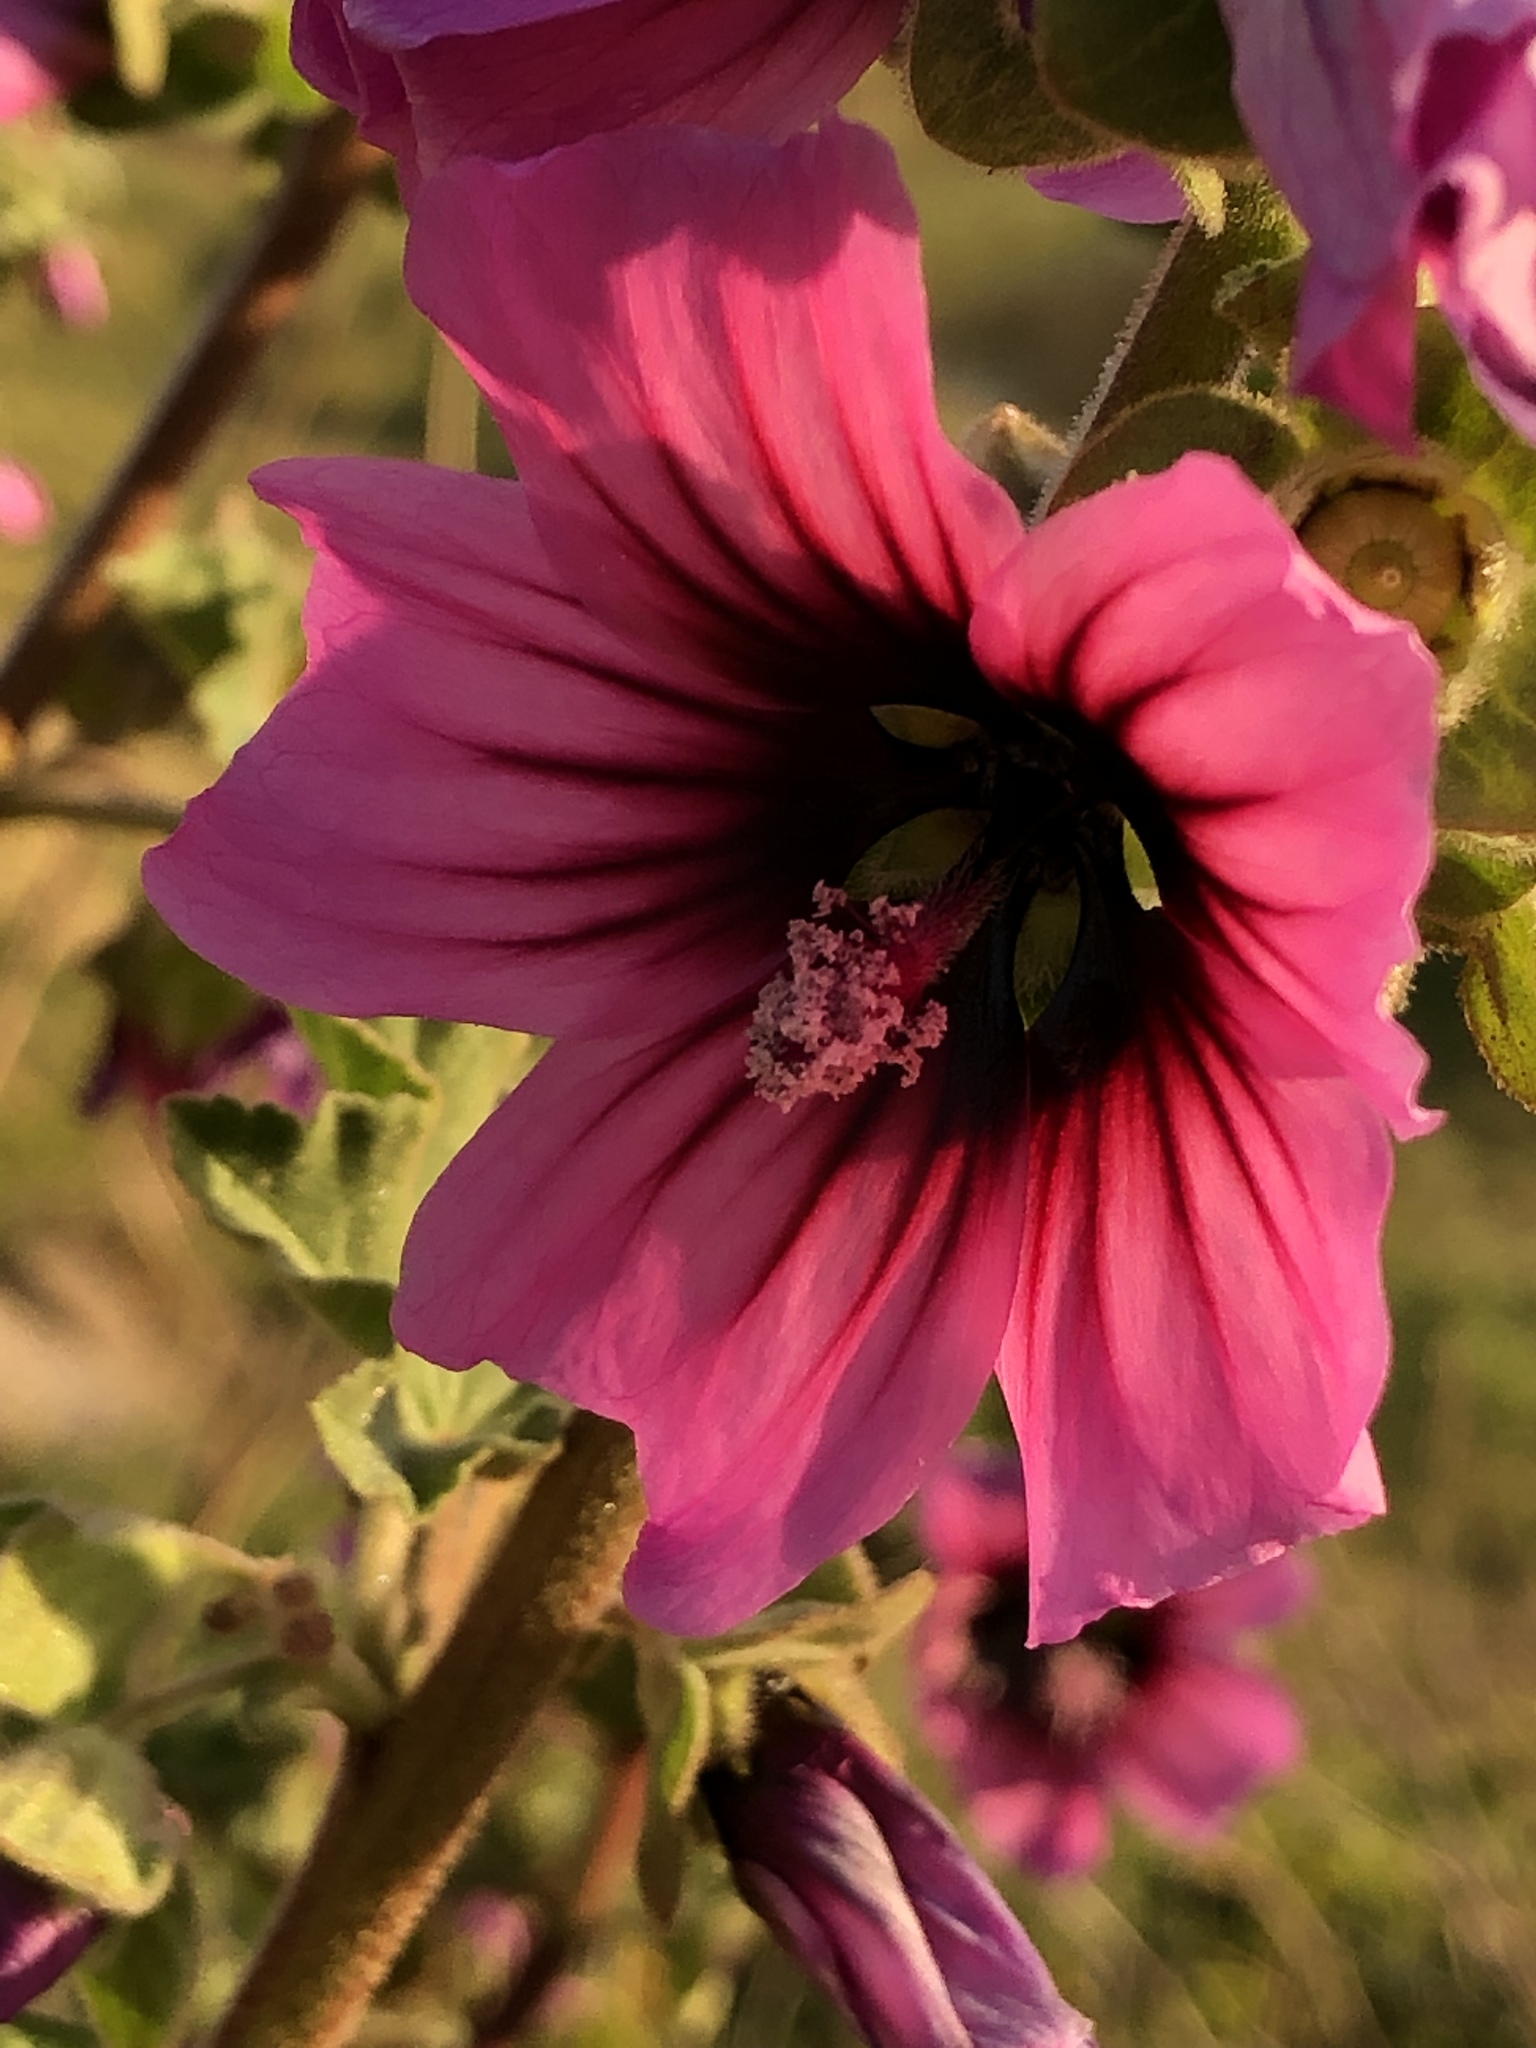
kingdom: Plantae
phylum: Tracheophyta
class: Magnoliopsida
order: Malvales
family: Malvaceae
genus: Malva
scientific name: Malva arborea
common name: Tree mallow
